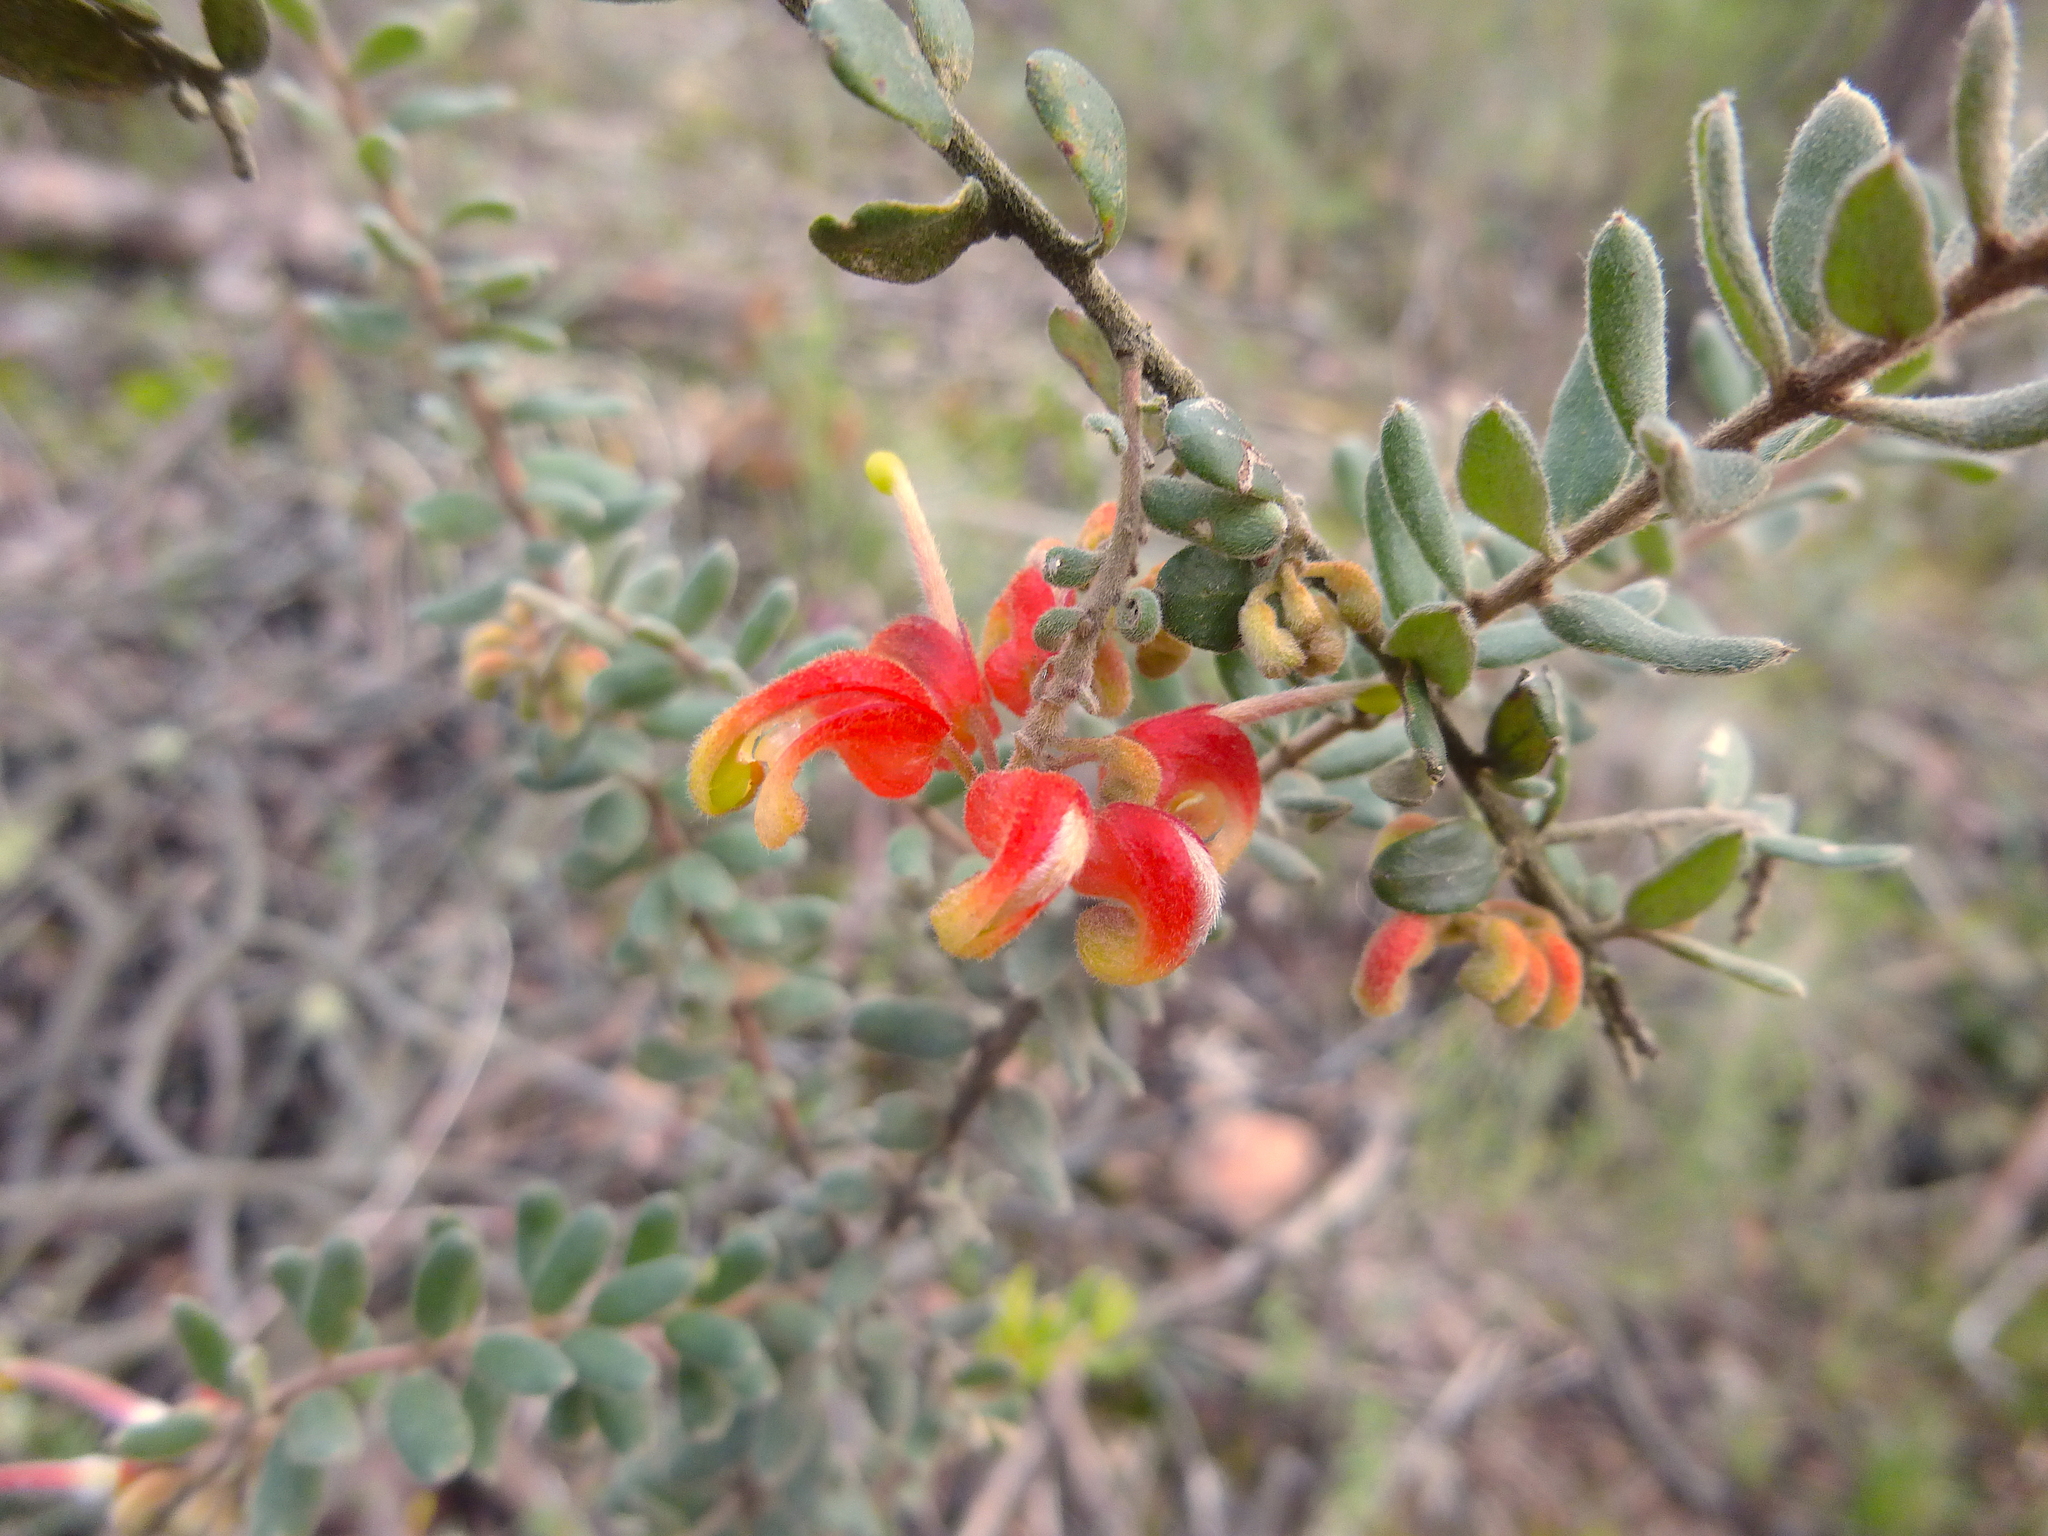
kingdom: Plantae
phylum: Tracheophyta
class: Magnoliopsida
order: Proteales
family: Proteaceae
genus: Grevillea
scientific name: Grevillea alpina
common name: Catclaws grevillea
